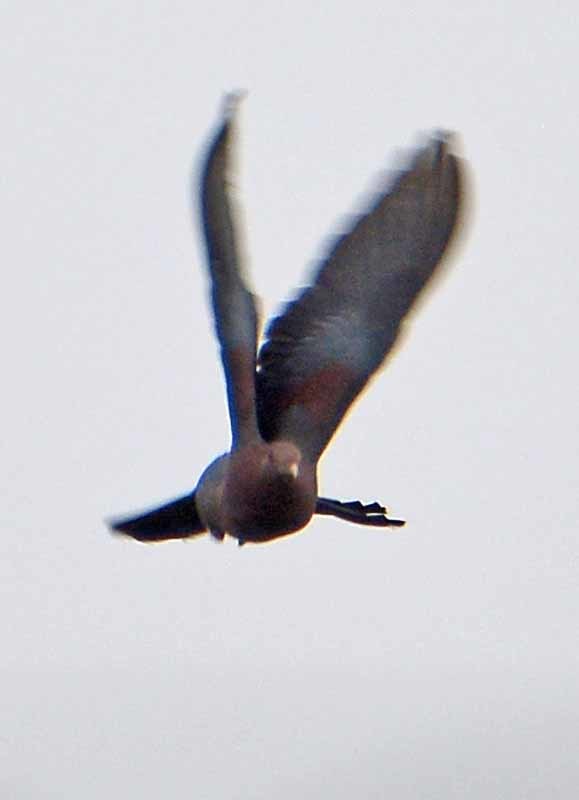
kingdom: Animalia
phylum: Chordata
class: Aves
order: Columbiformes
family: Columbidae
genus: Patagioenas
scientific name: Patagioenas flavirostris
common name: Red-billed pigeon
